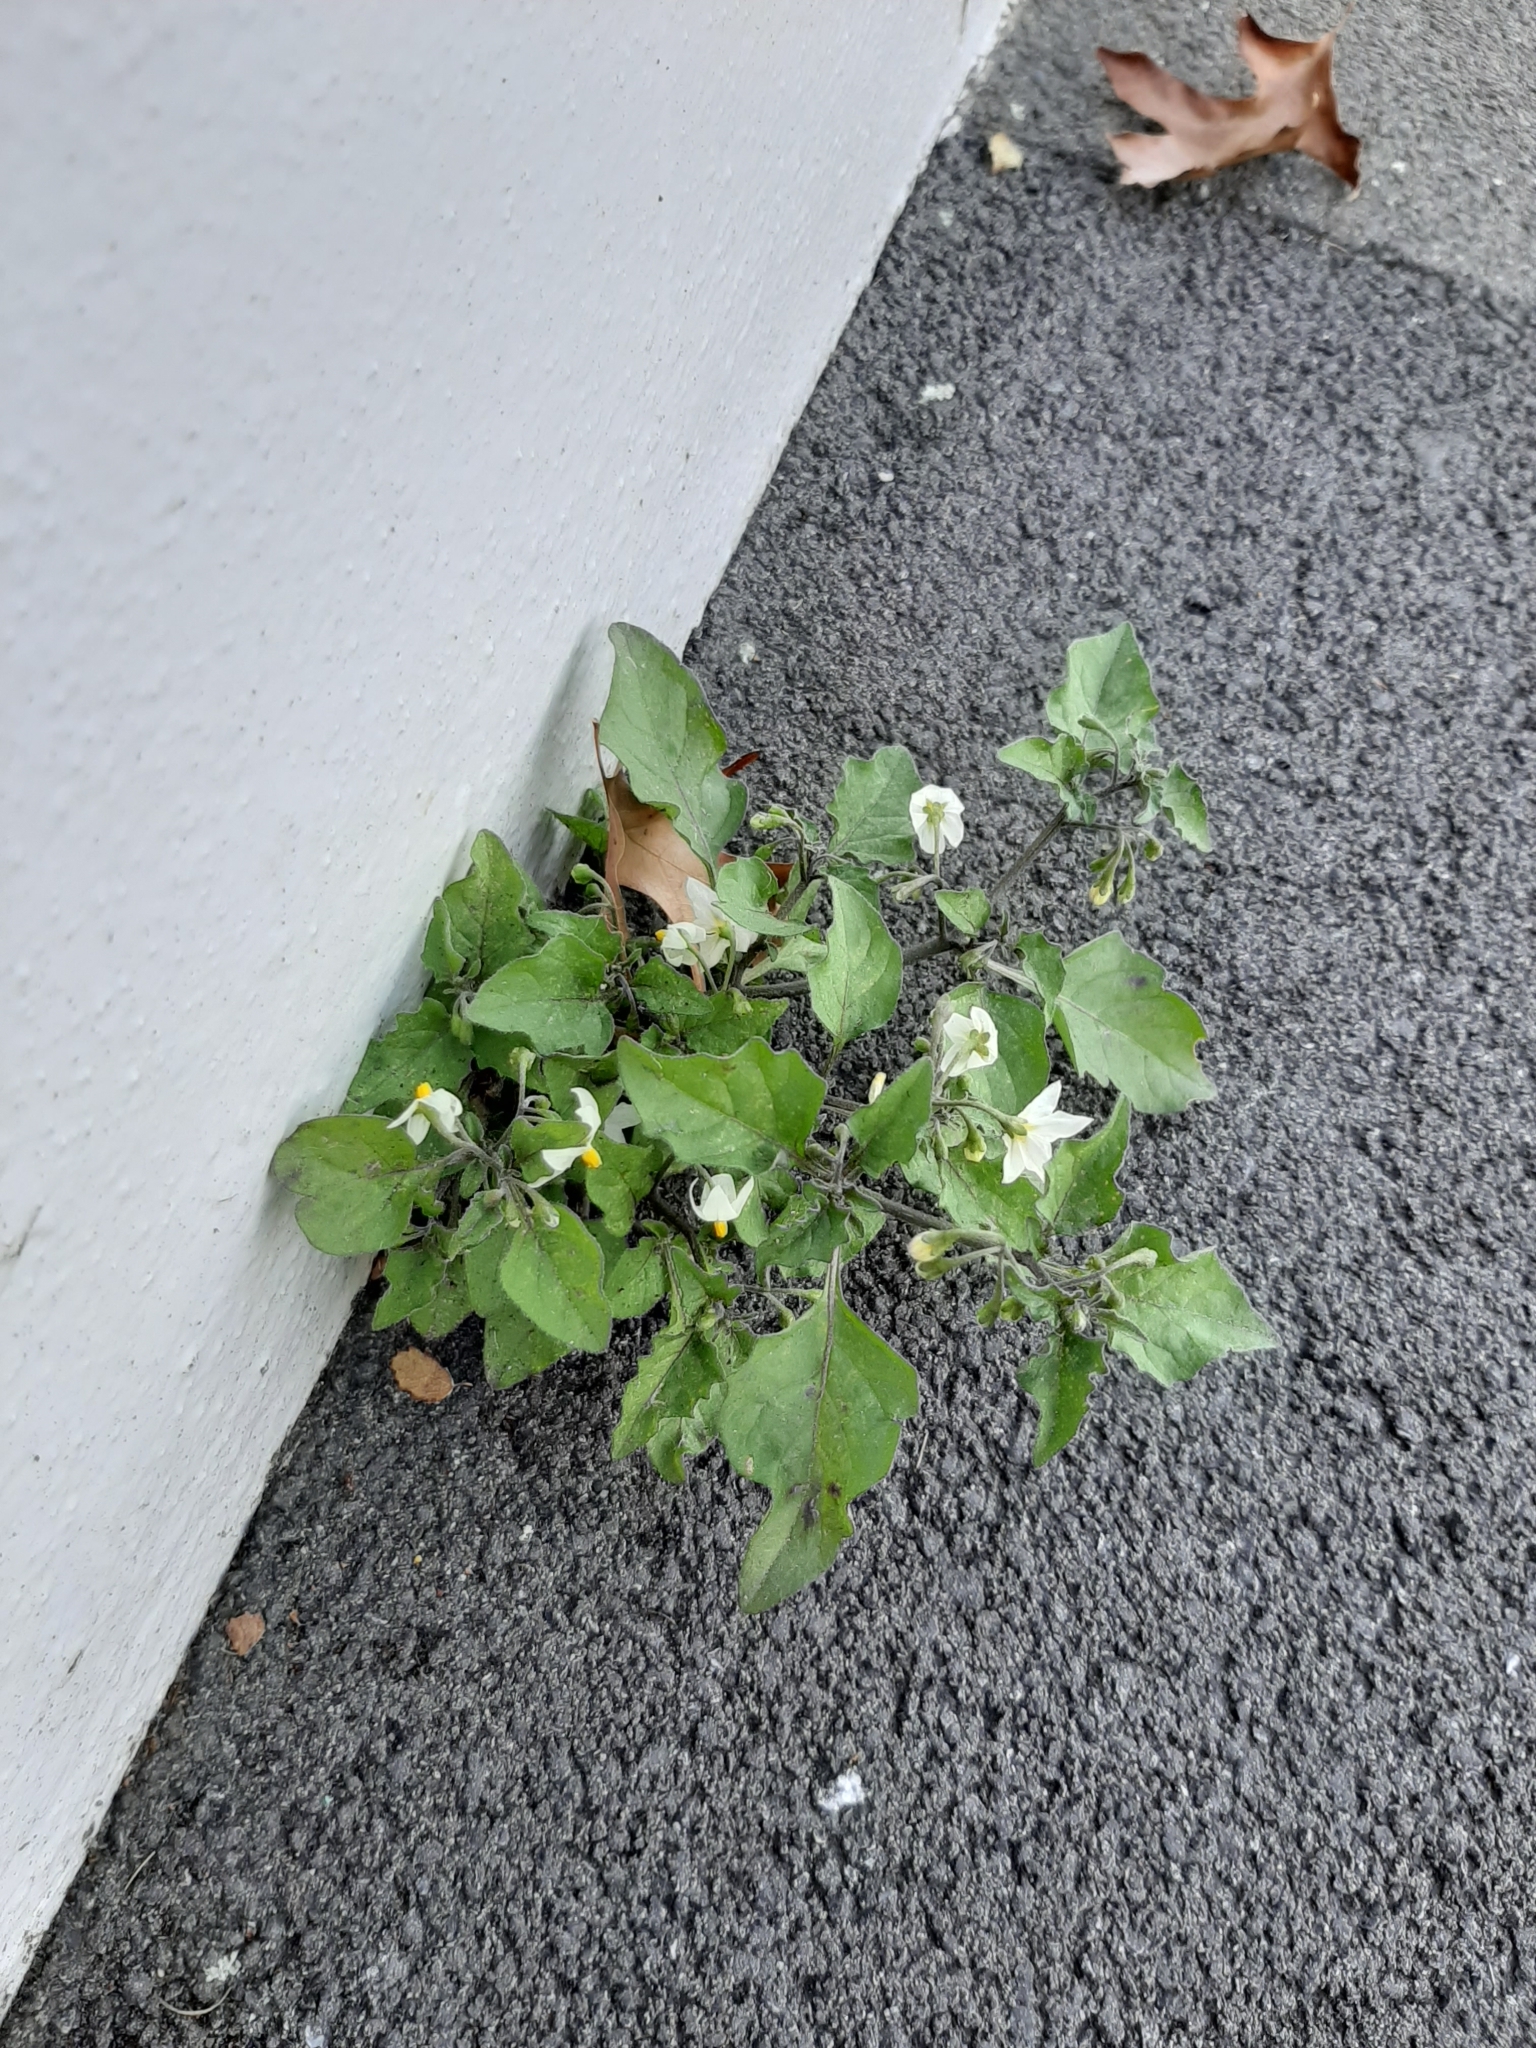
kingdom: Plantae
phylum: Tracheophyta
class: Magnoliopsida
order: Solanales
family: Solanaceae
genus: Solanum
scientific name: Solanum nigrum
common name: Black nightshade
